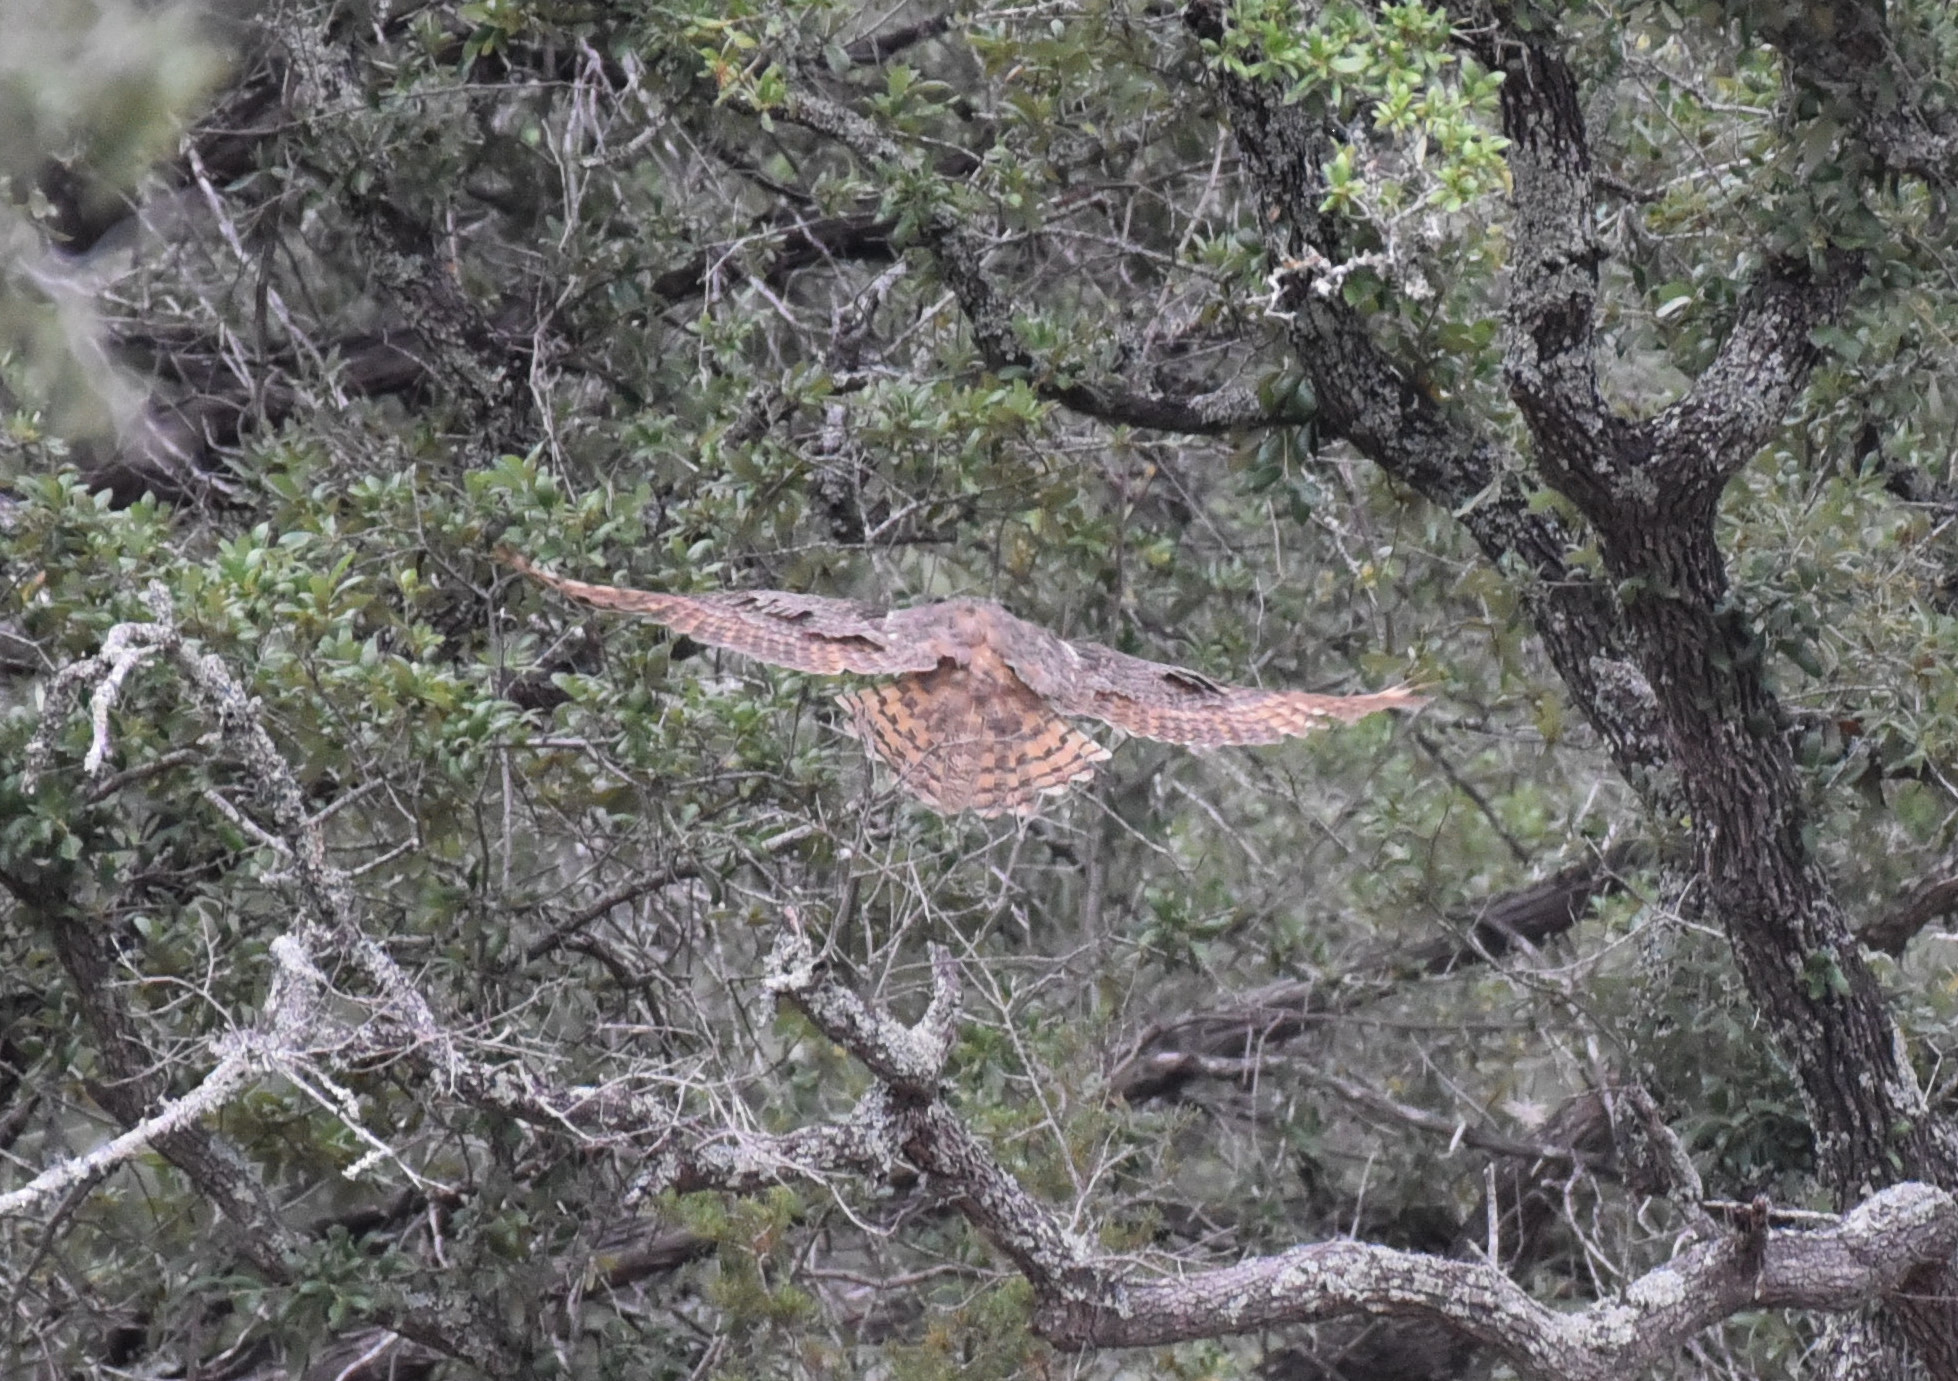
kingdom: Animalia
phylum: Chordata
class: Aves
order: Strigiformes
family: Strigidae
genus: Bubo
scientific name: Bubo virginianus
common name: Great horned owl
